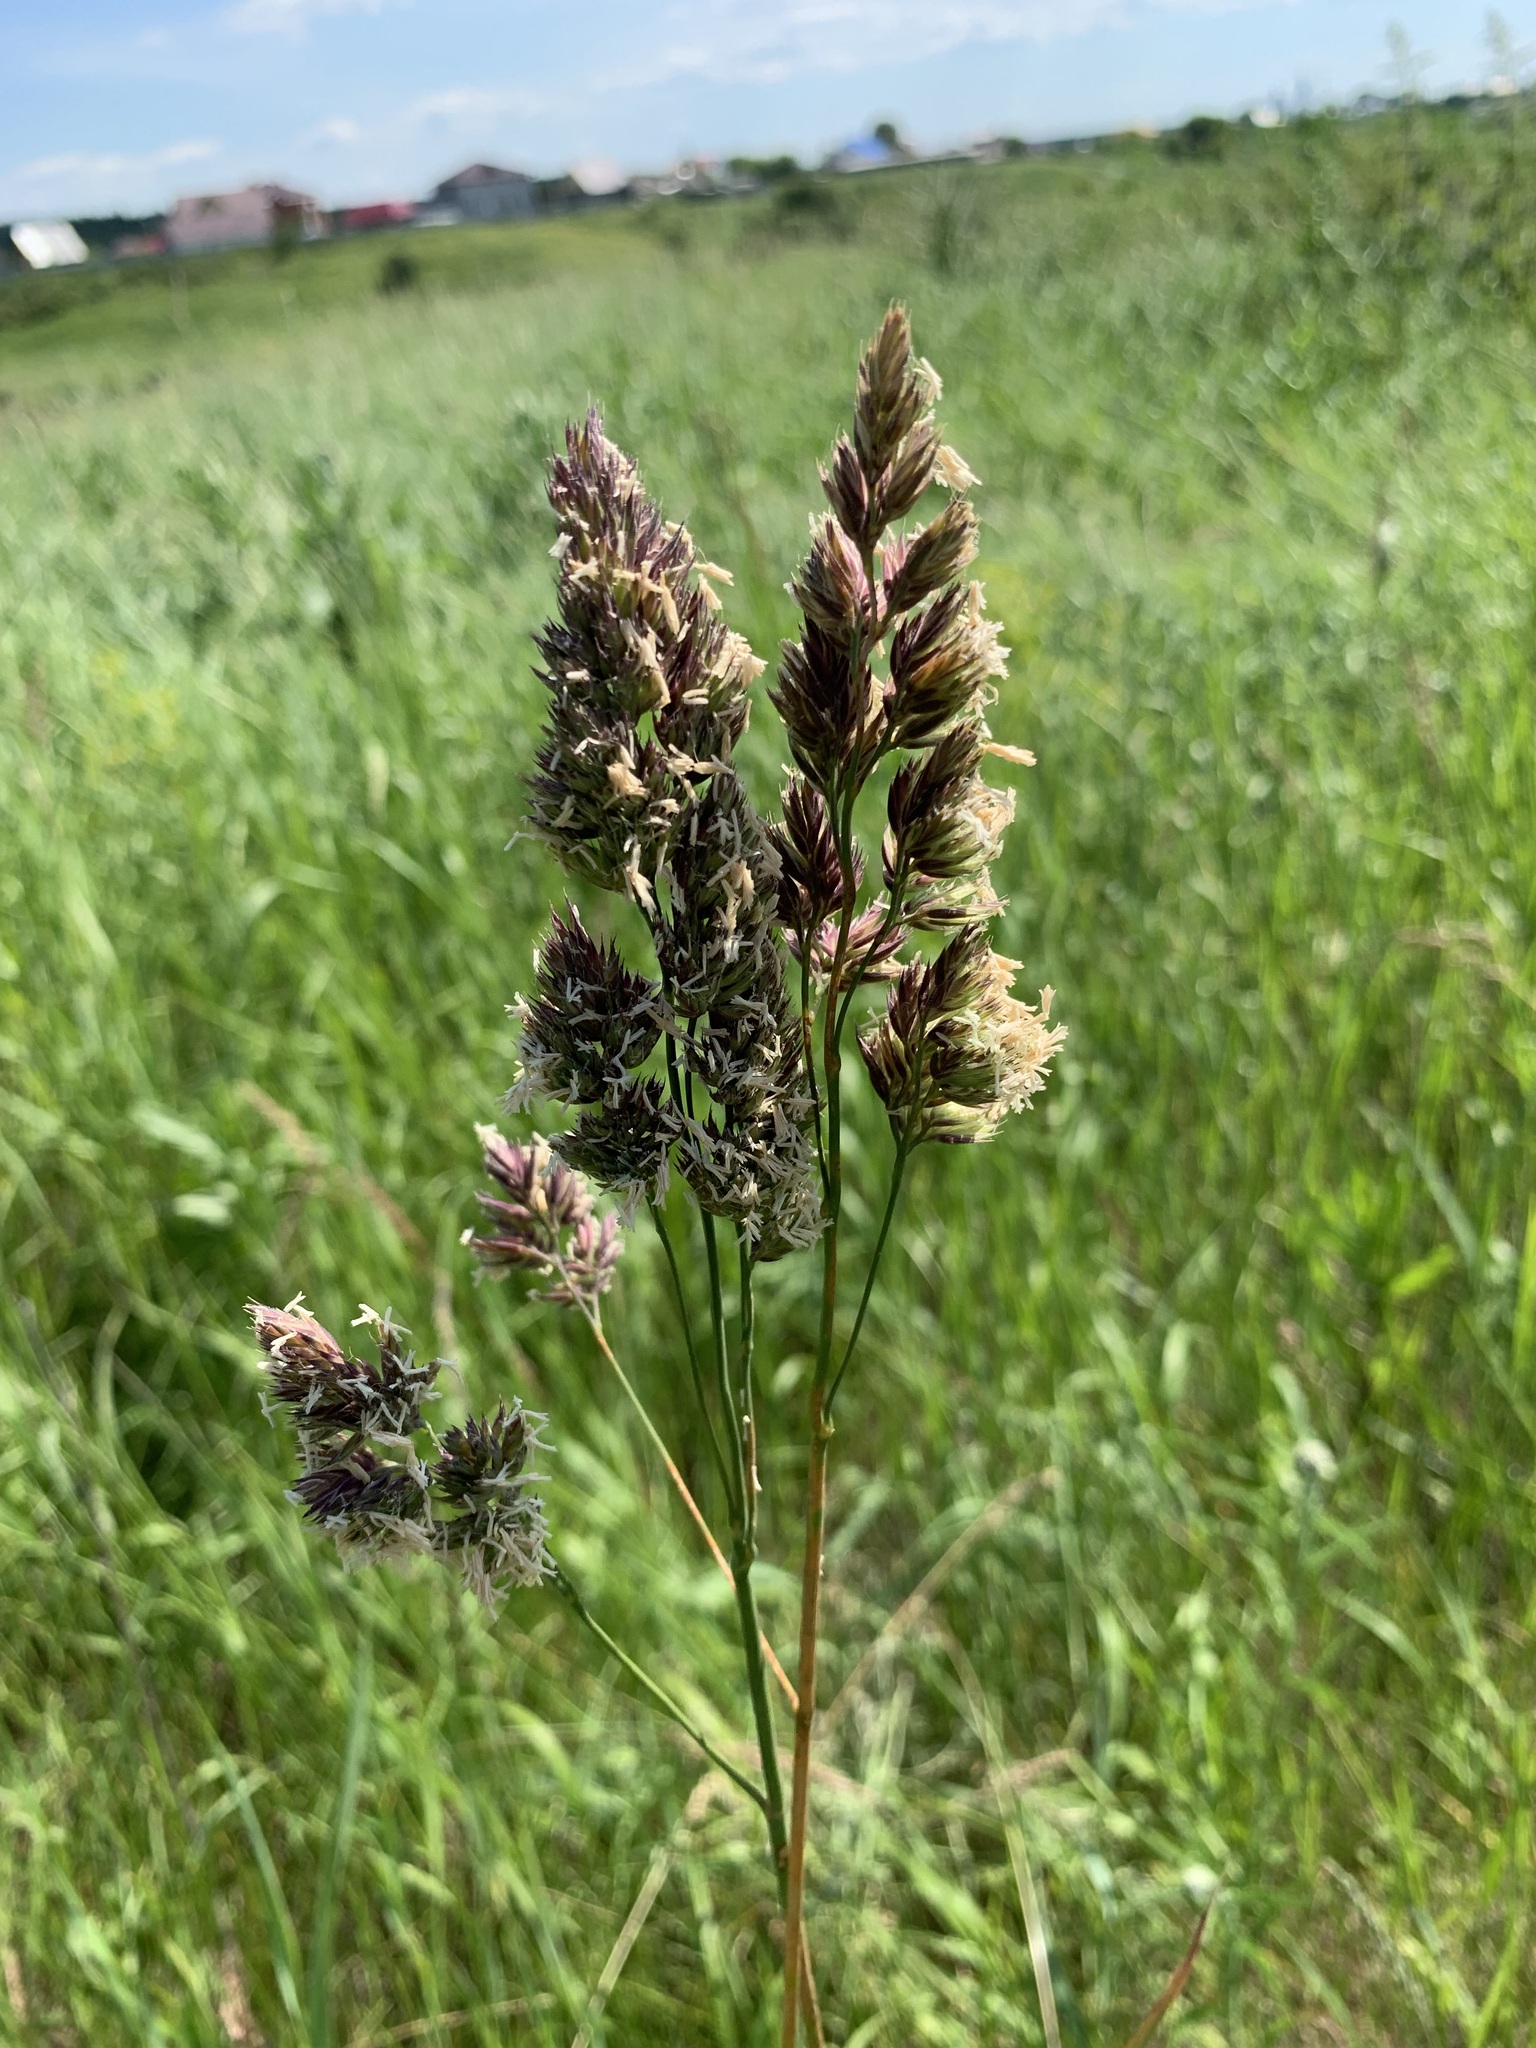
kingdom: Plantae
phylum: Tracheophyta
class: Liliopsida
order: Poales
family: Poaceae
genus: Dactylis
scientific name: Dactylis glomerata
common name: Orchardgrass
